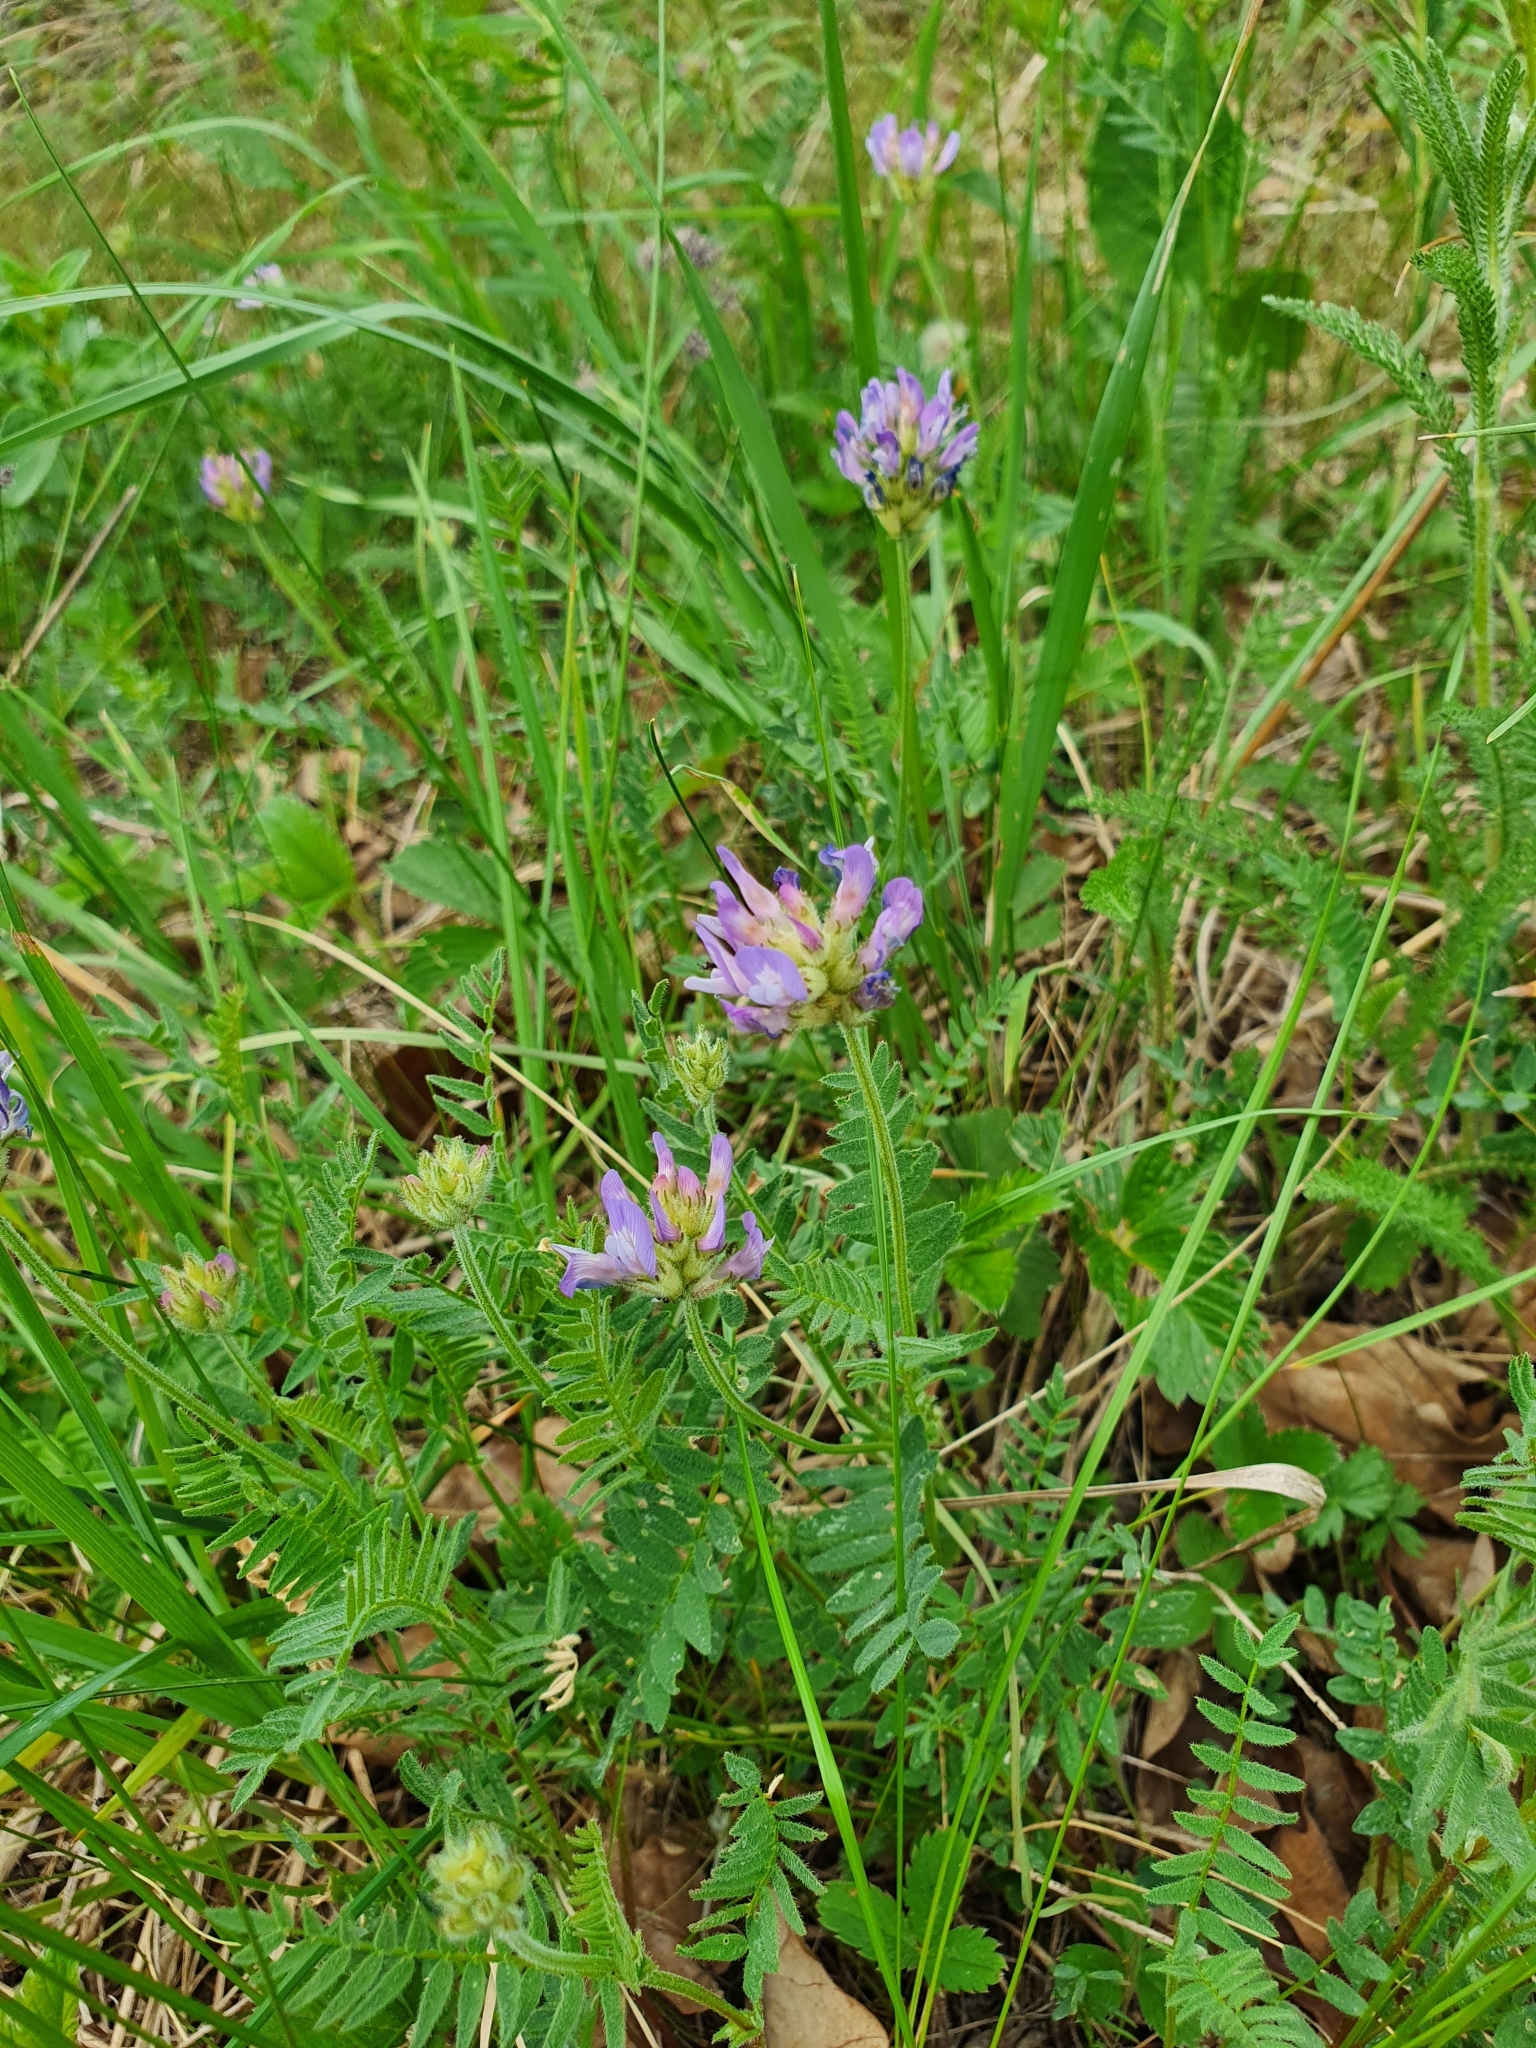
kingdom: Plantae
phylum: Tracheophyta
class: Magnoliopsida
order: Fabales
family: Fabaceae
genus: Astragalus
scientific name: Astragalus danicus
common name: Purple milk-vetch
